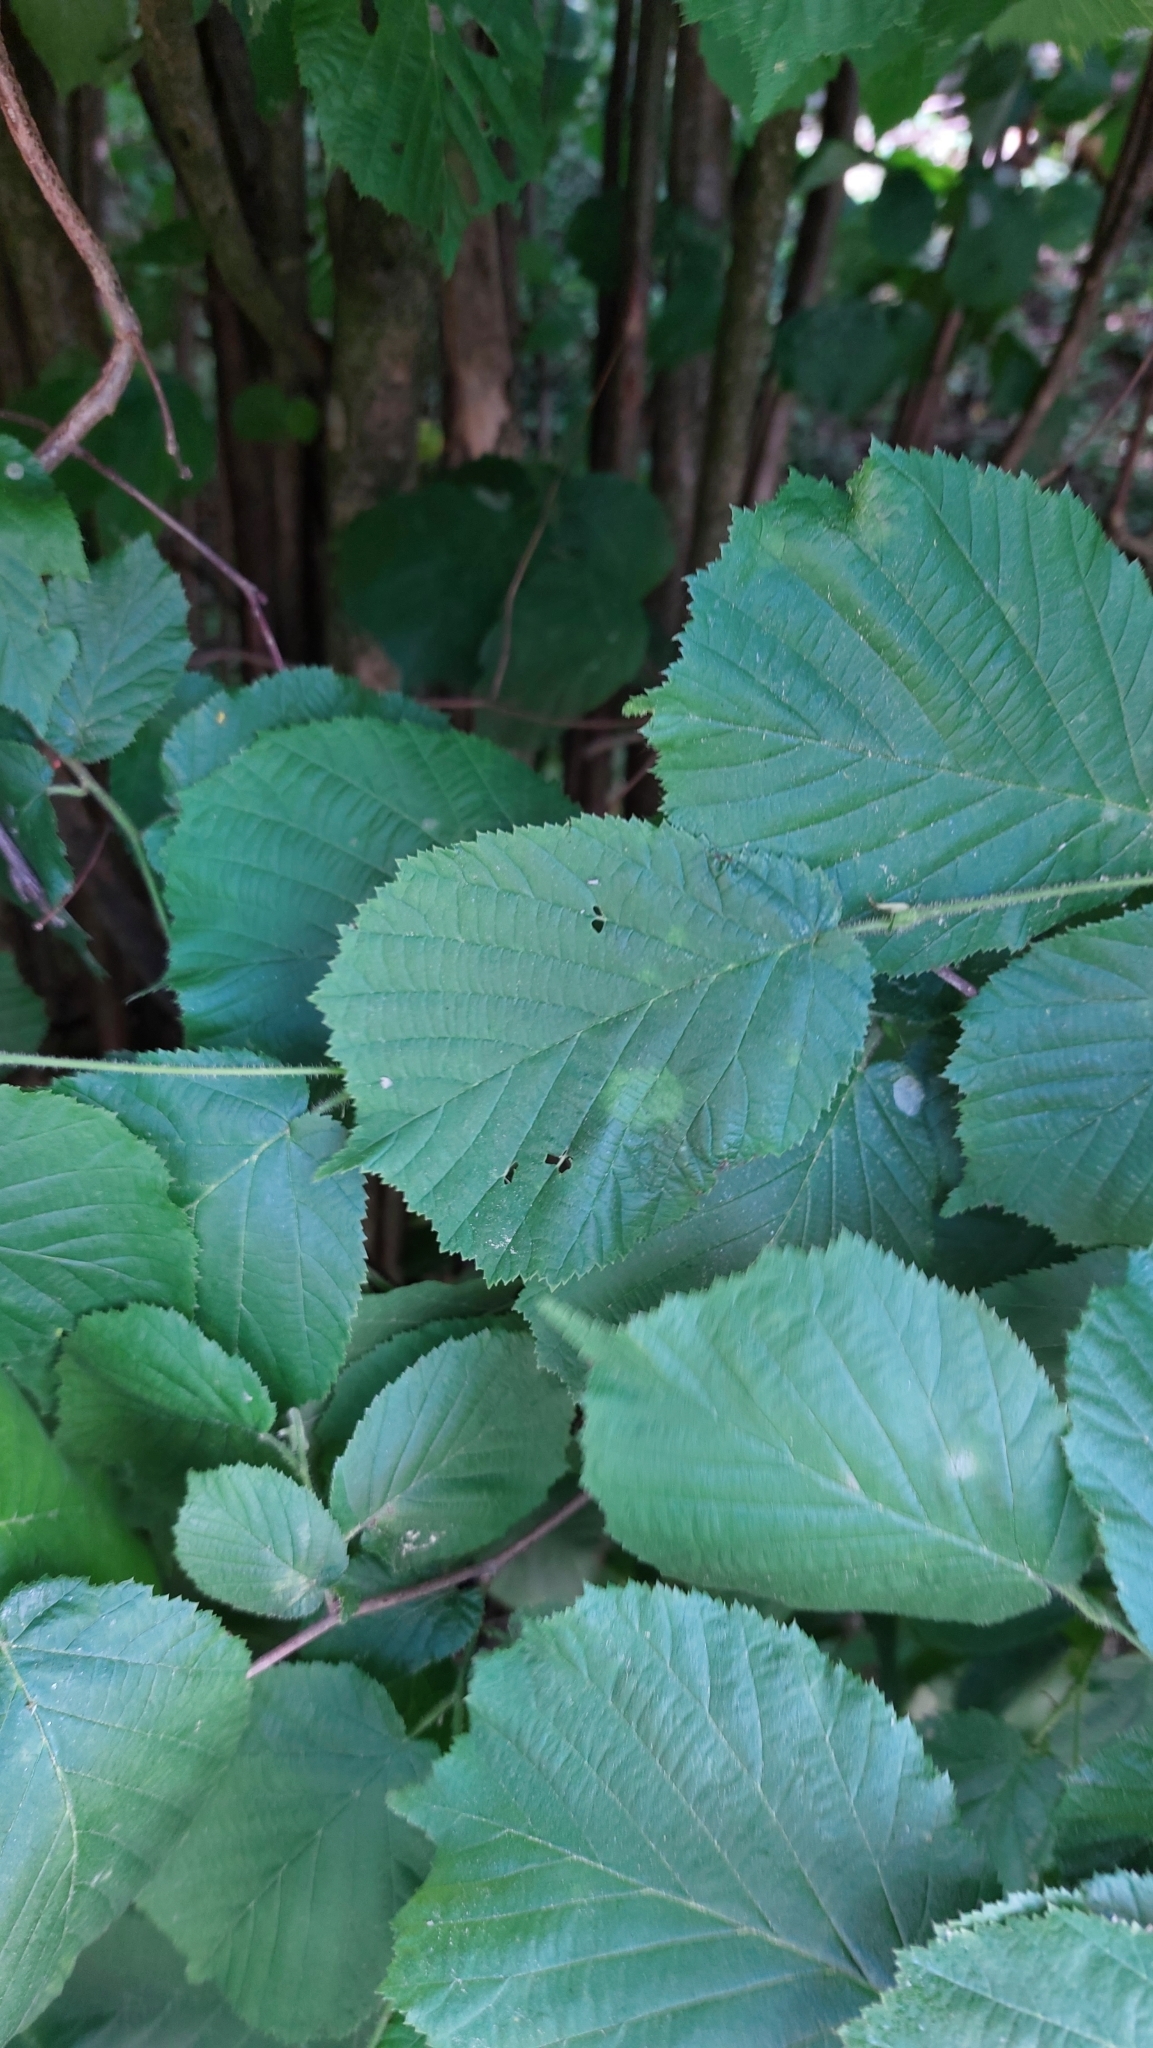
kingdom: Plantae
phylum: Tracheophyta
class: Magnoliopsida
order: Fagales
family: Betulaceae
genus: Corylus
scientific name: Corylus avellana
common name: European hazel
